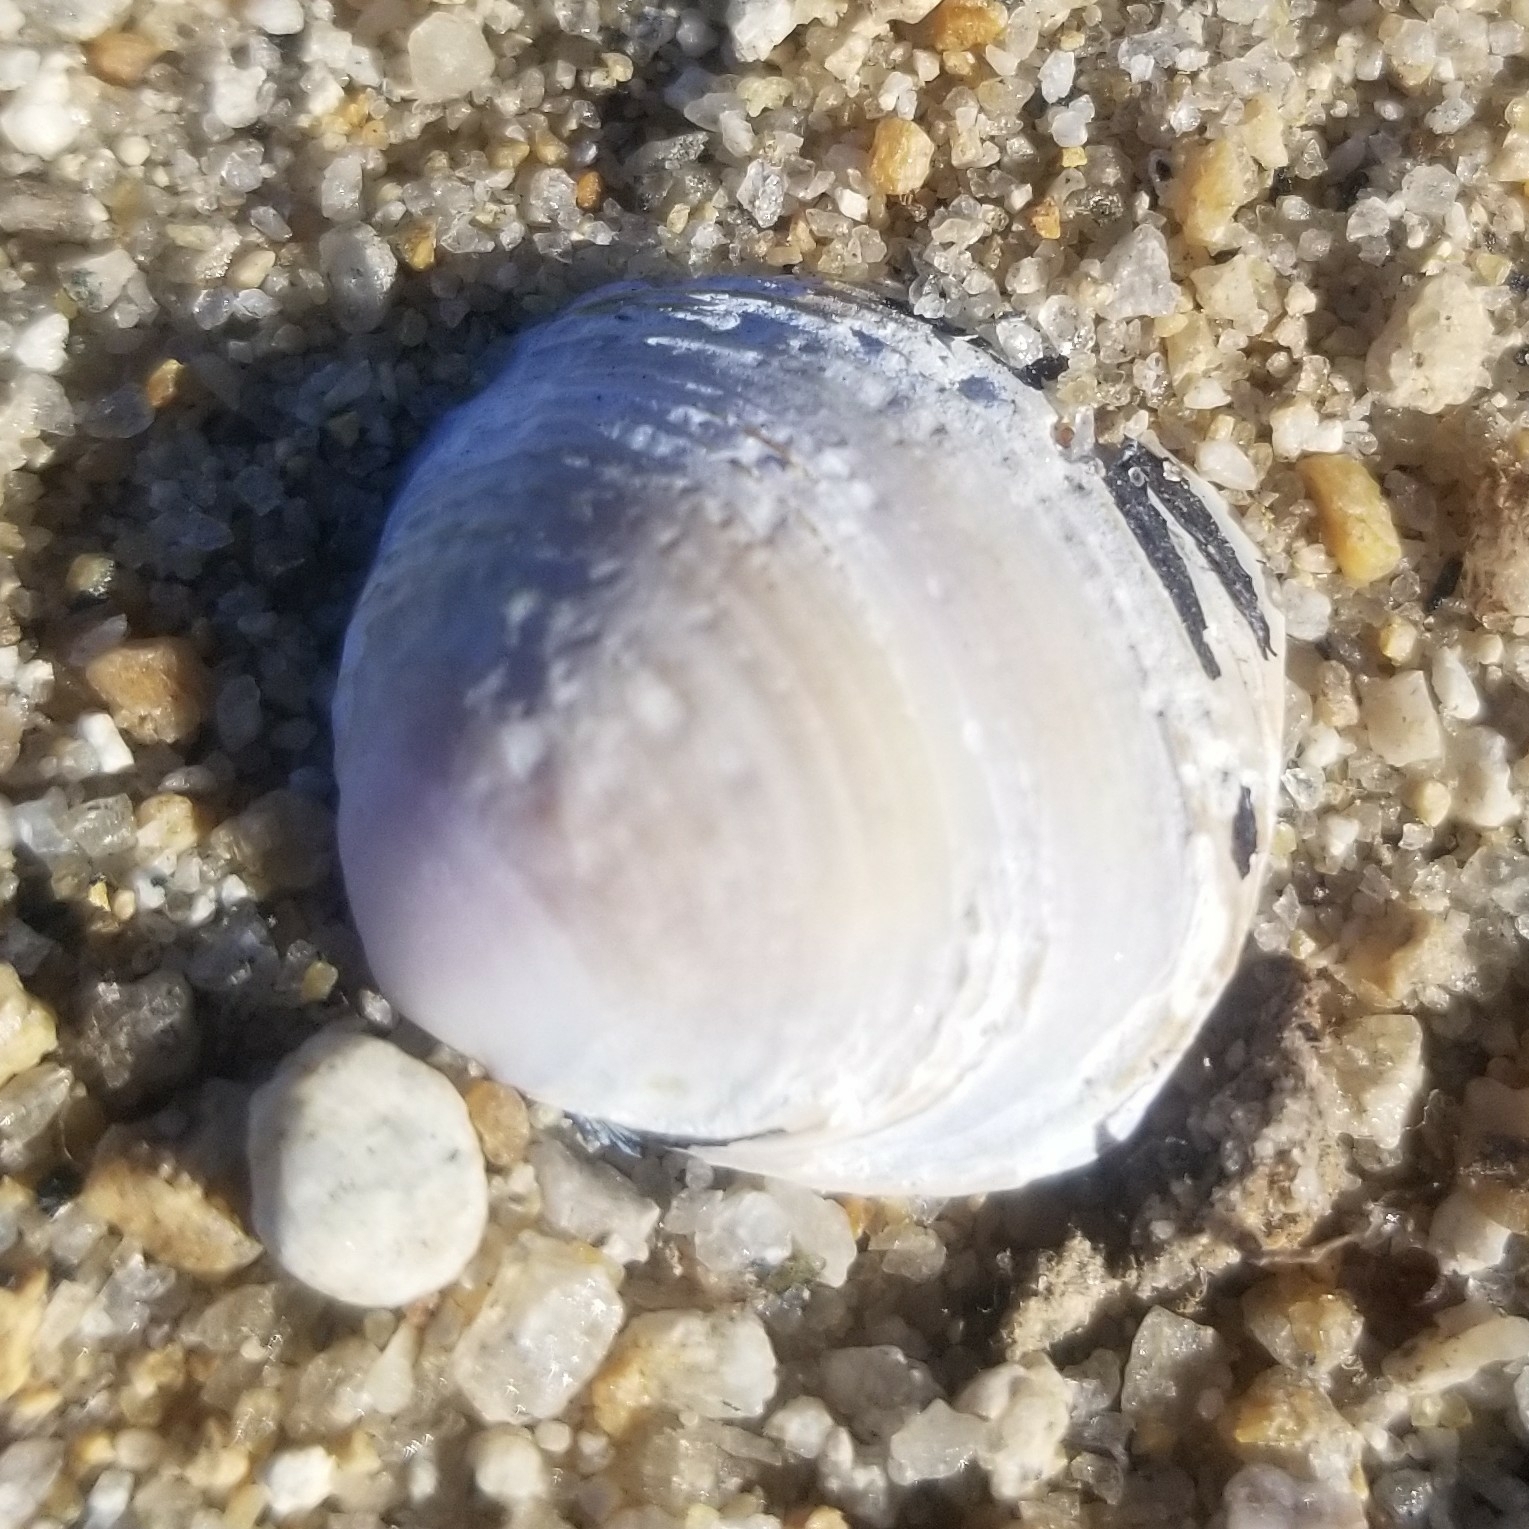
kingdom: Animalia
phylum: Mollusca
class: Bivalvia
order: Venerida
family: Cyrenidae
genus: Corbicula
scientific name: Corbicula fluminea
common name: Asian clam
